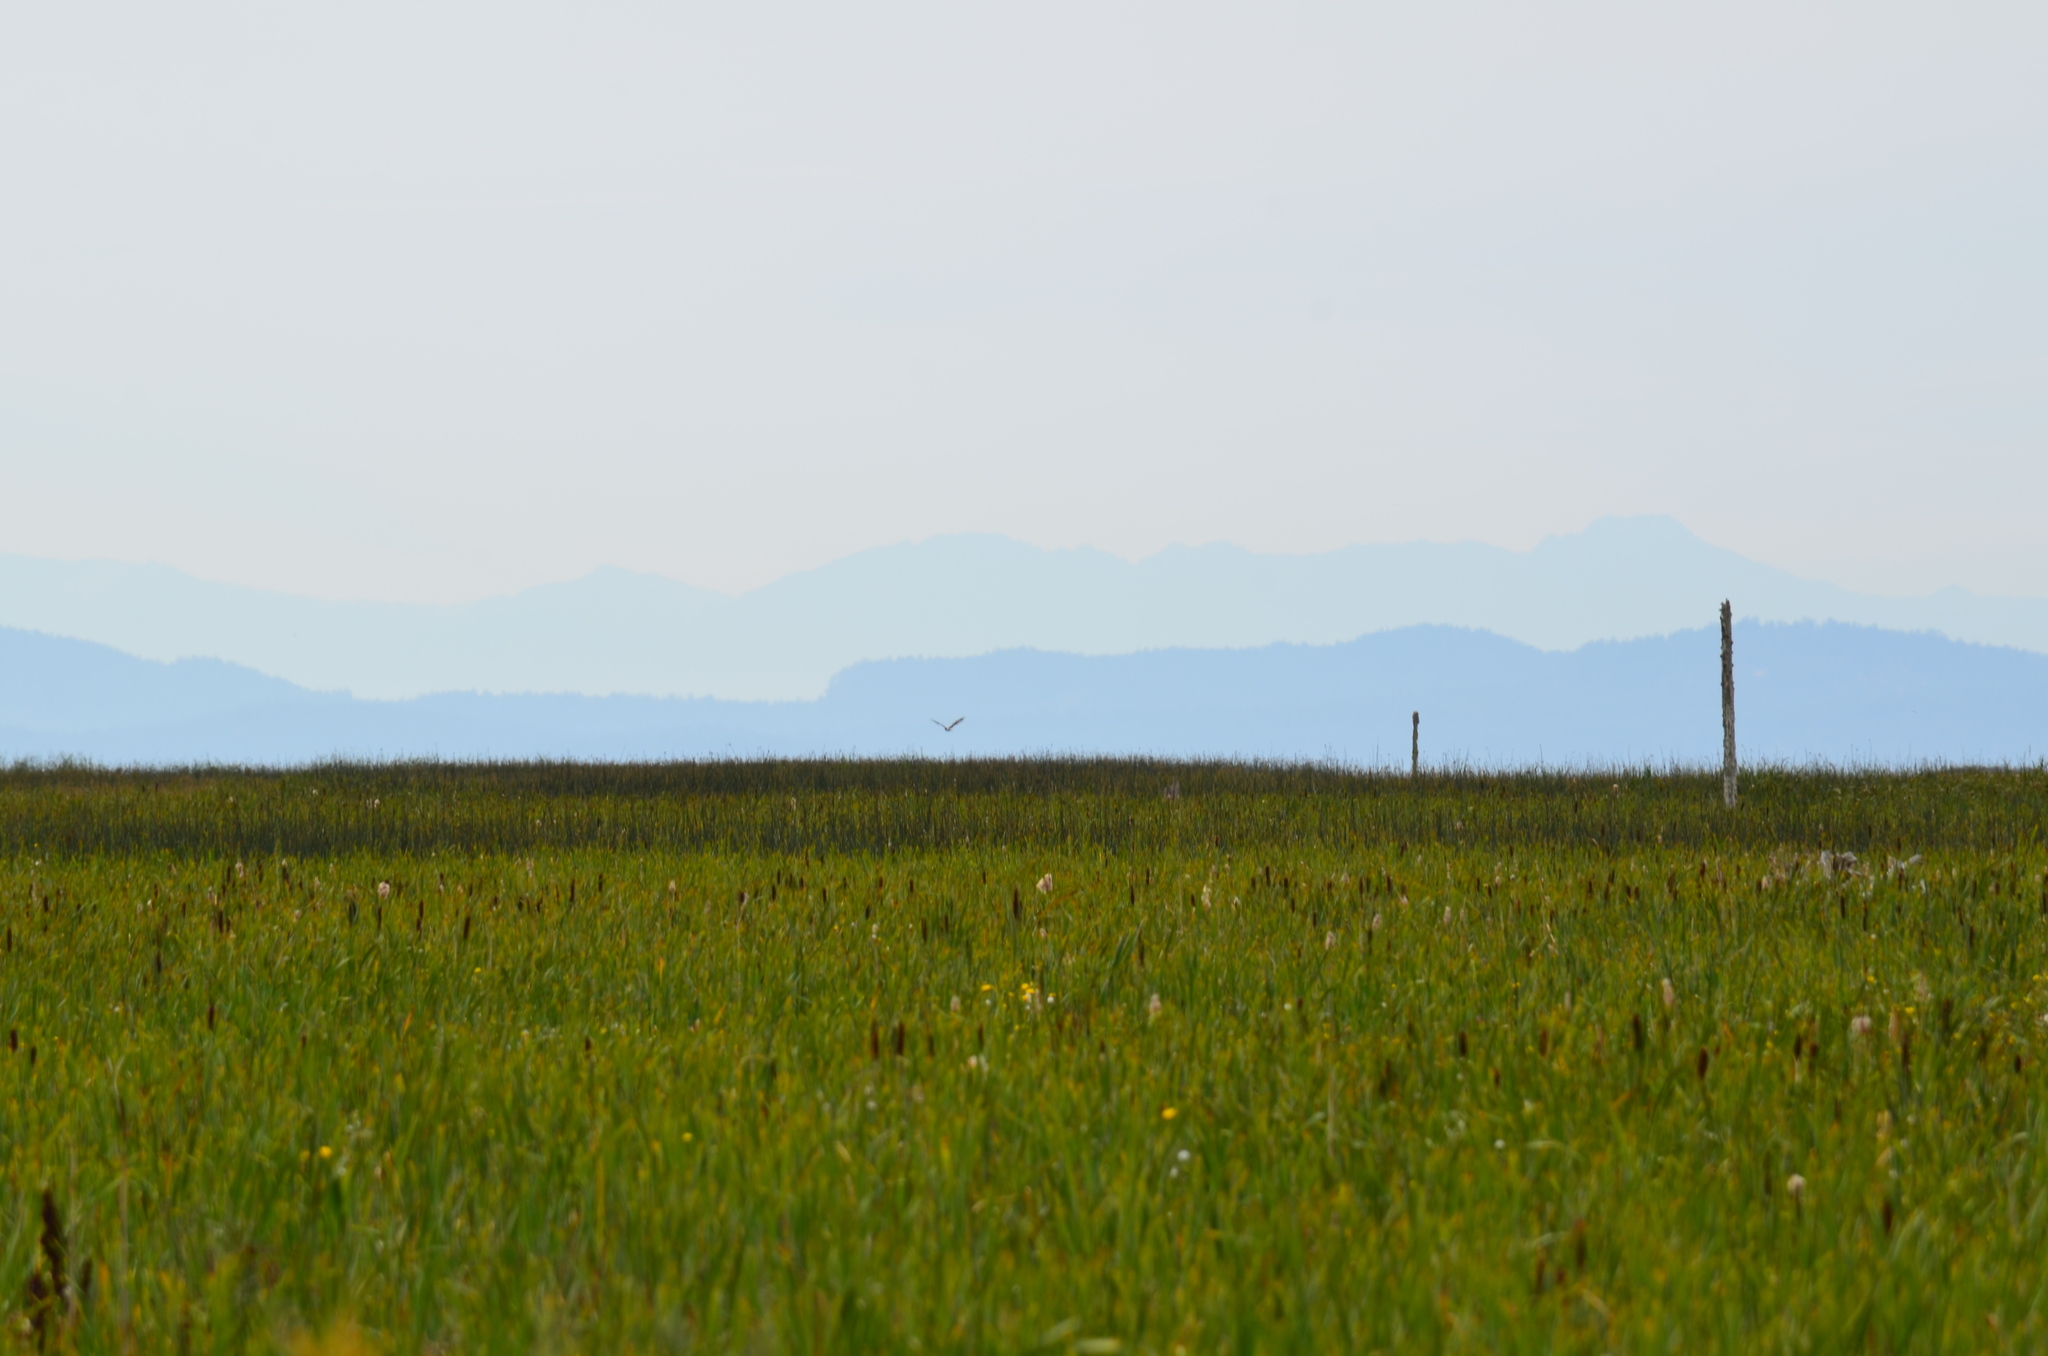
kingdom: Animalia
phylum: Chordata
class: Aves
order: Accipitriformes
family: Accipitridae
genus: Circus
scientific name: Circus cyaneus
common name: Hen harrier
